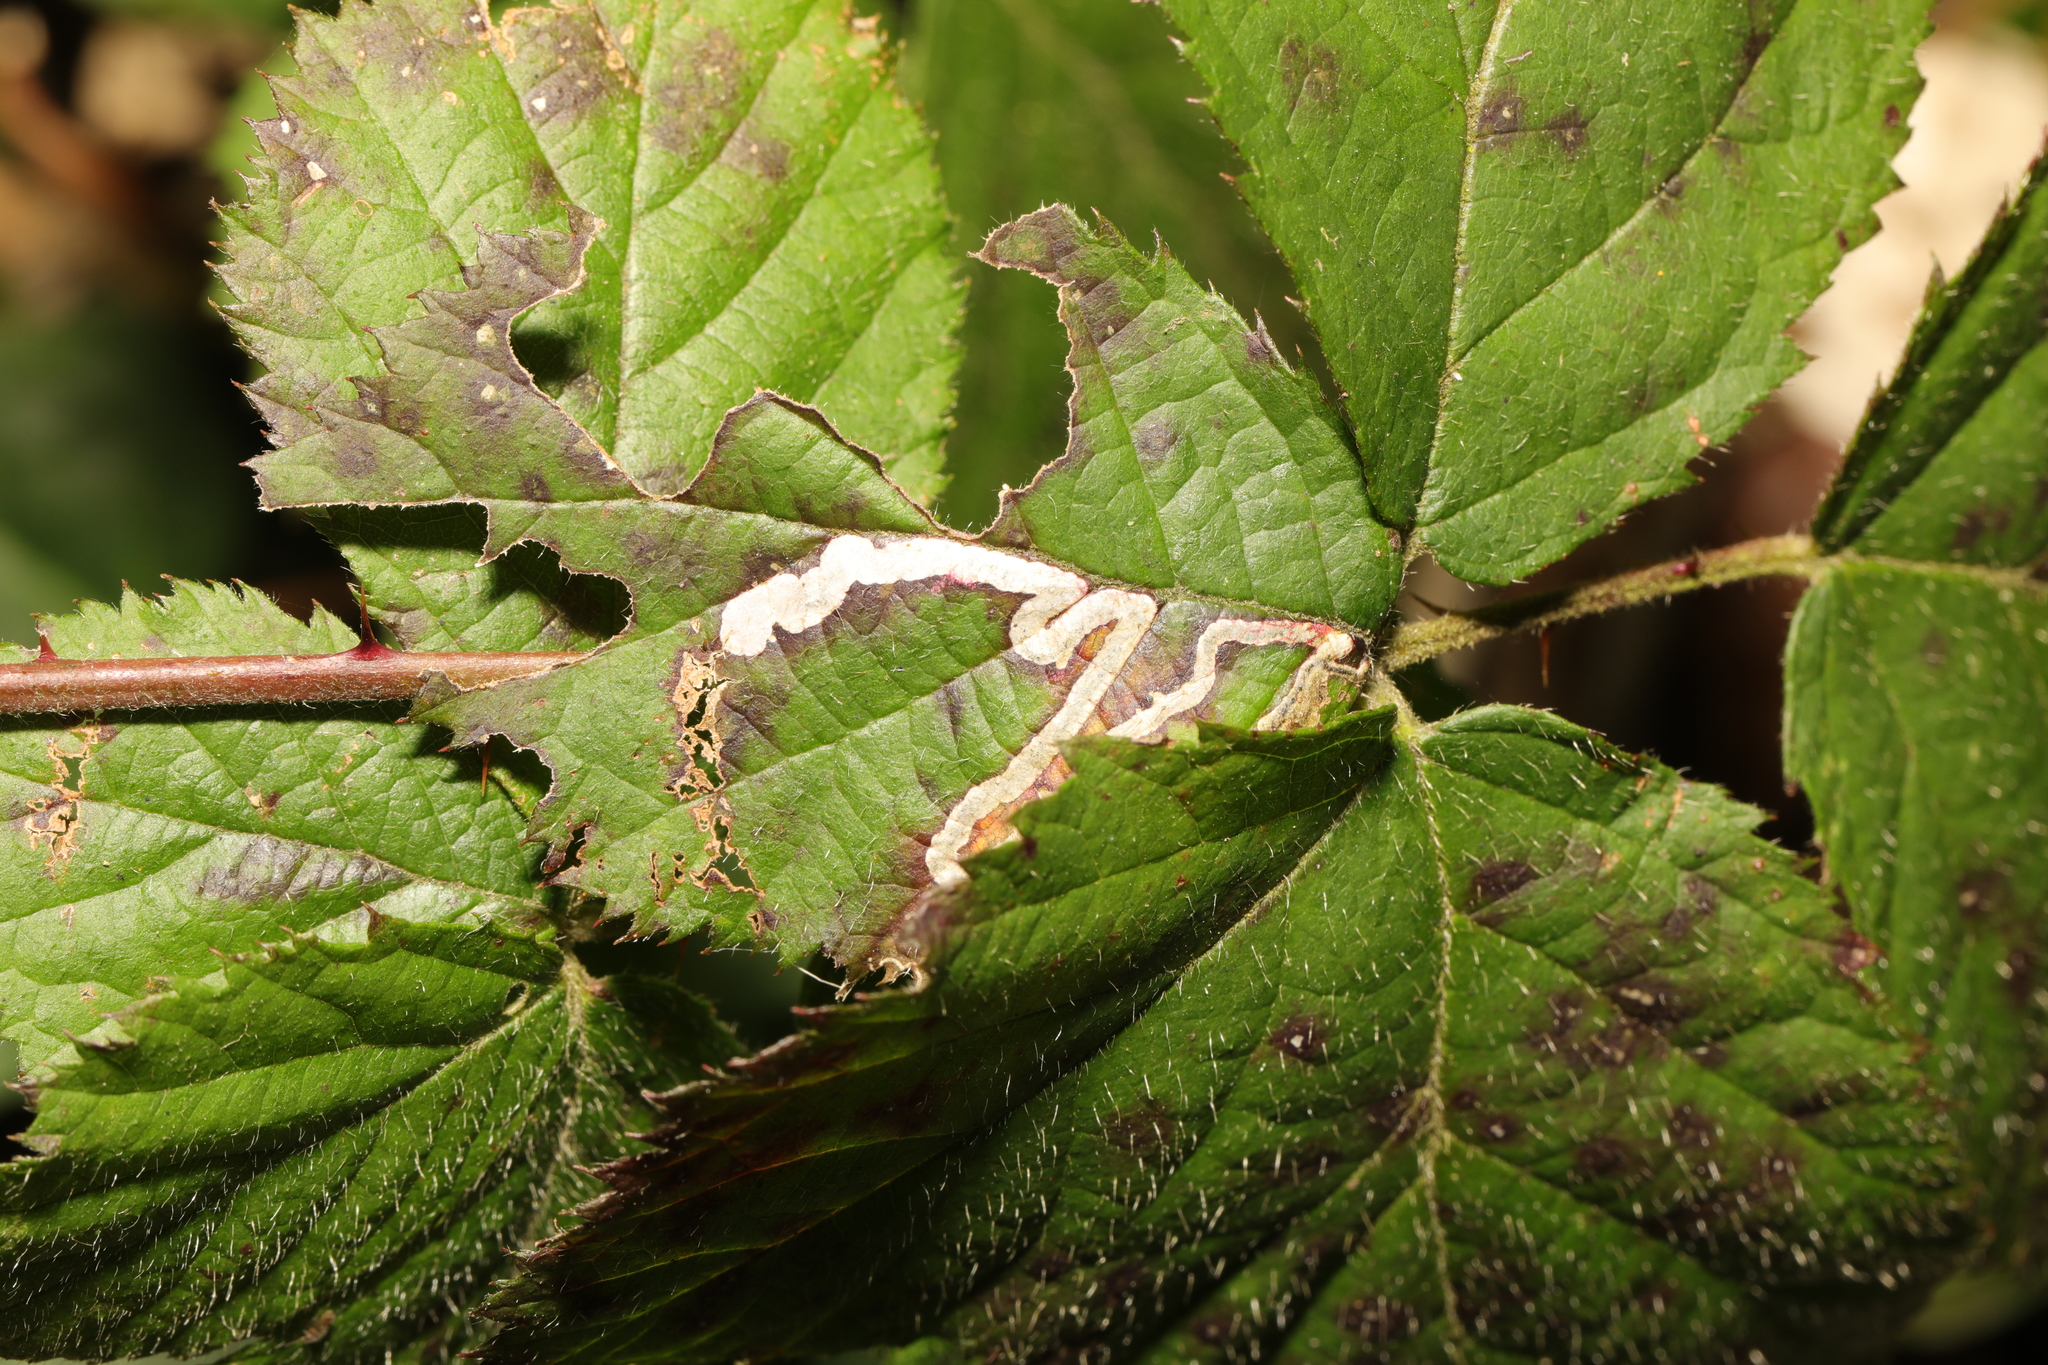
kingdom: Animalia
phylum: Arthropoda
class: Insecta
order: Lepidoptera
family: Nepticulidae
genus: Stigmella
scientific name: Stigmella aurella
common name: Golden pigmy
